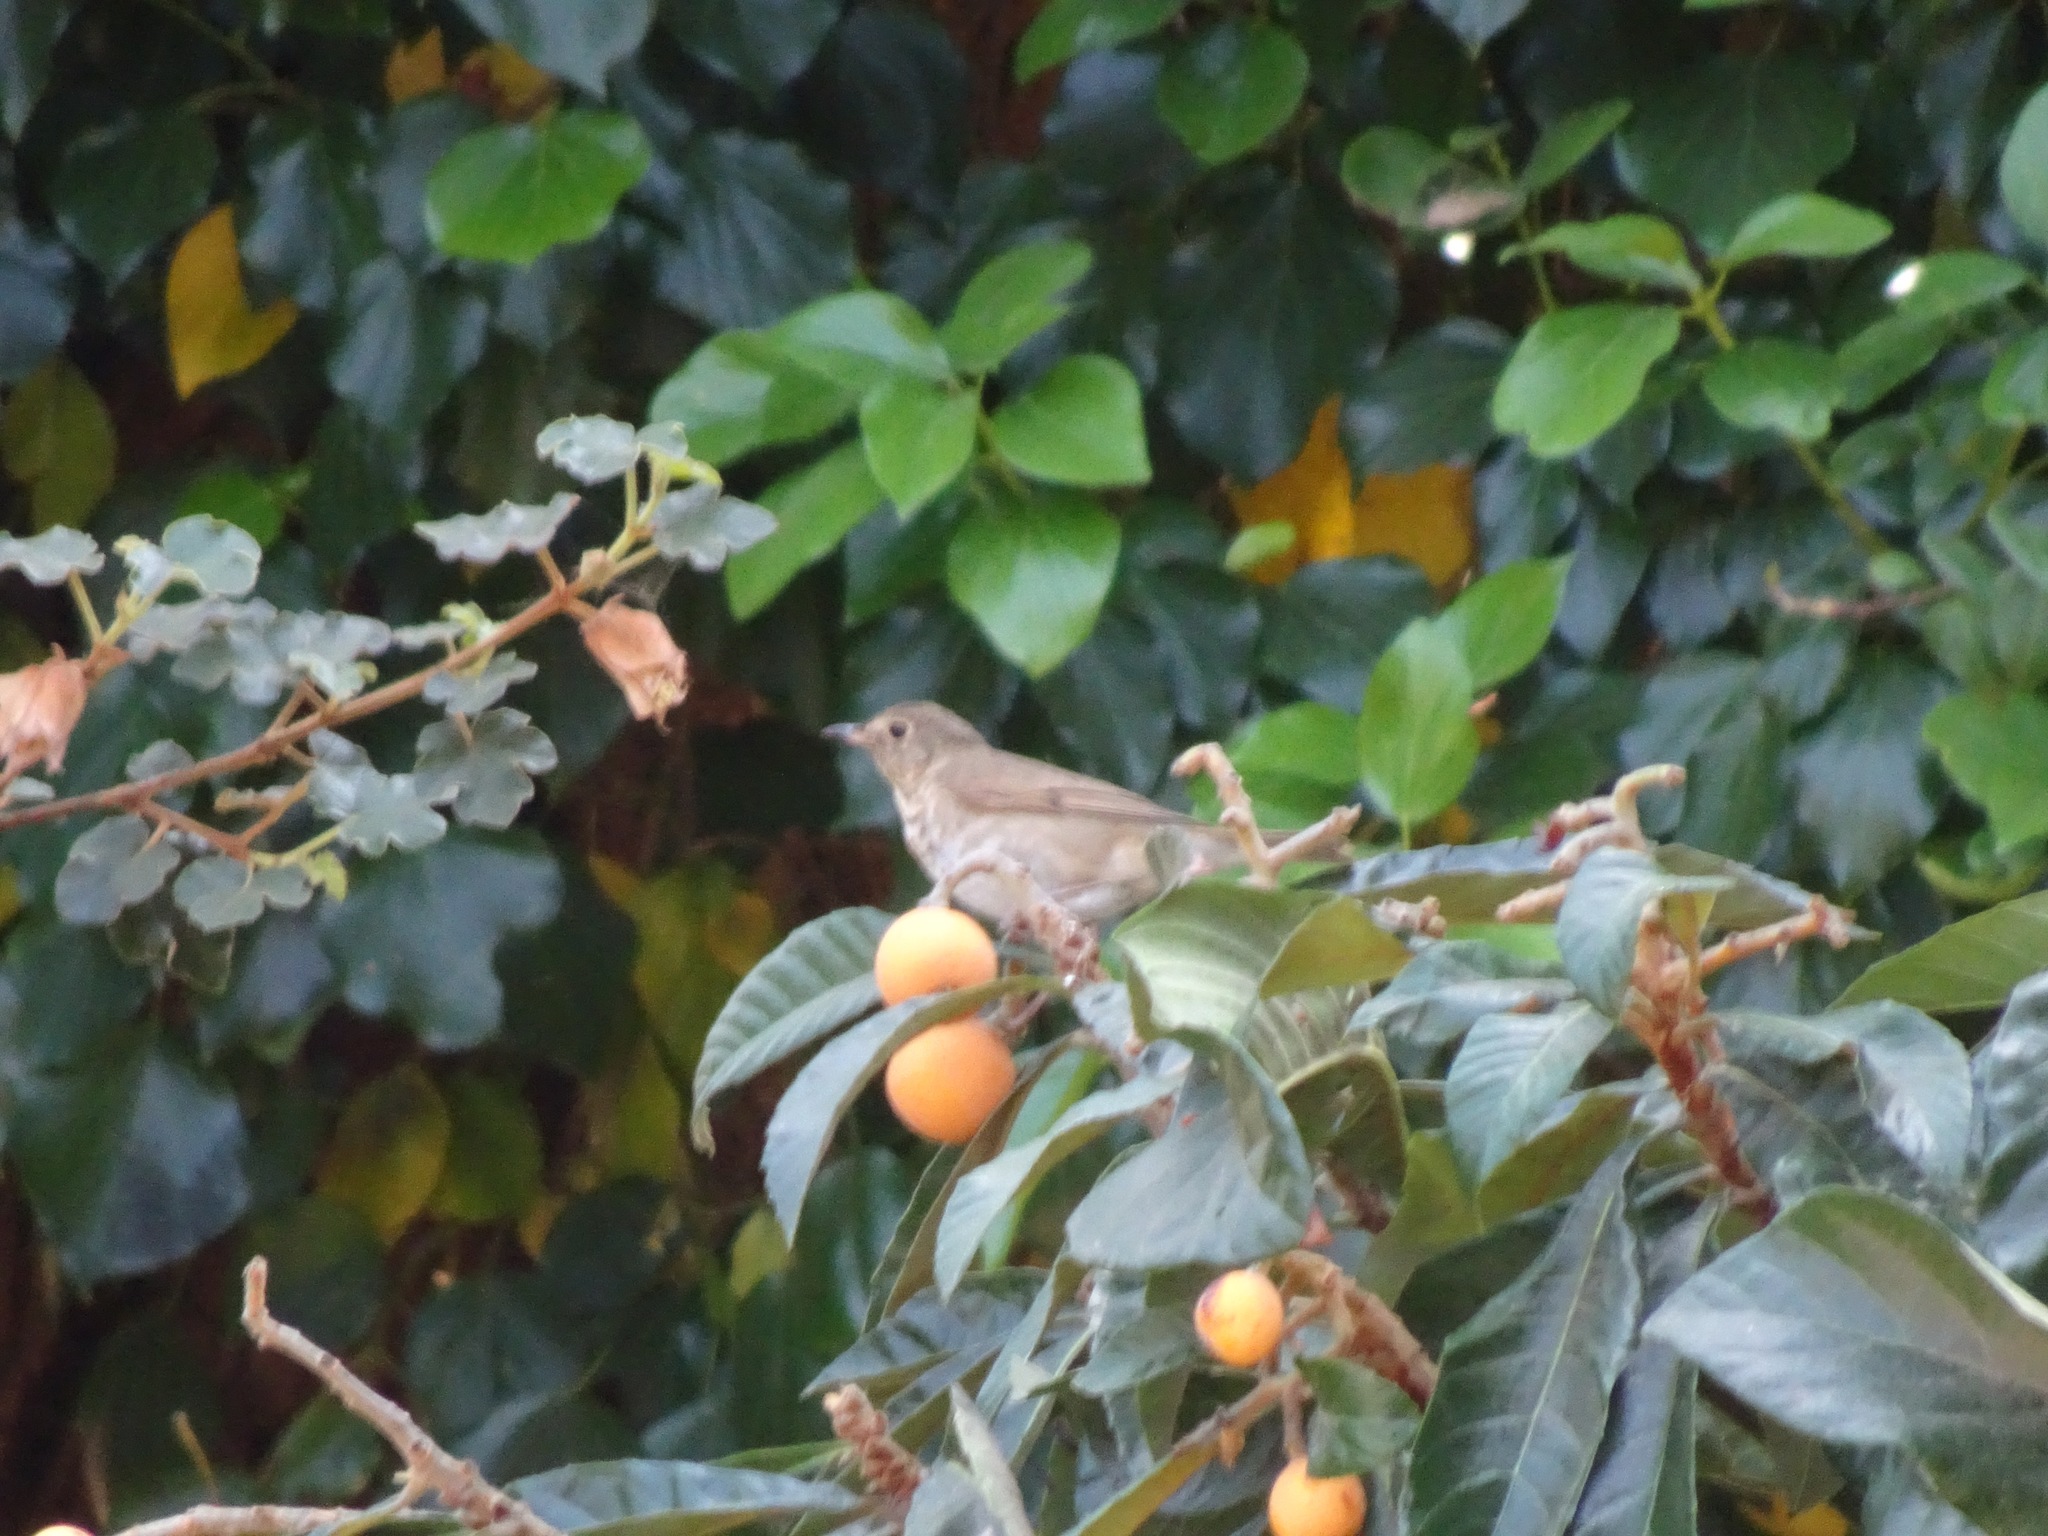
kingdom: Animalia
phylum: Chordata
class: Aves
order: Passeriformes
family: Turdidae
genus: Catharus
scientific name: Catharus ustulatus
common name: Swainson's thrush
